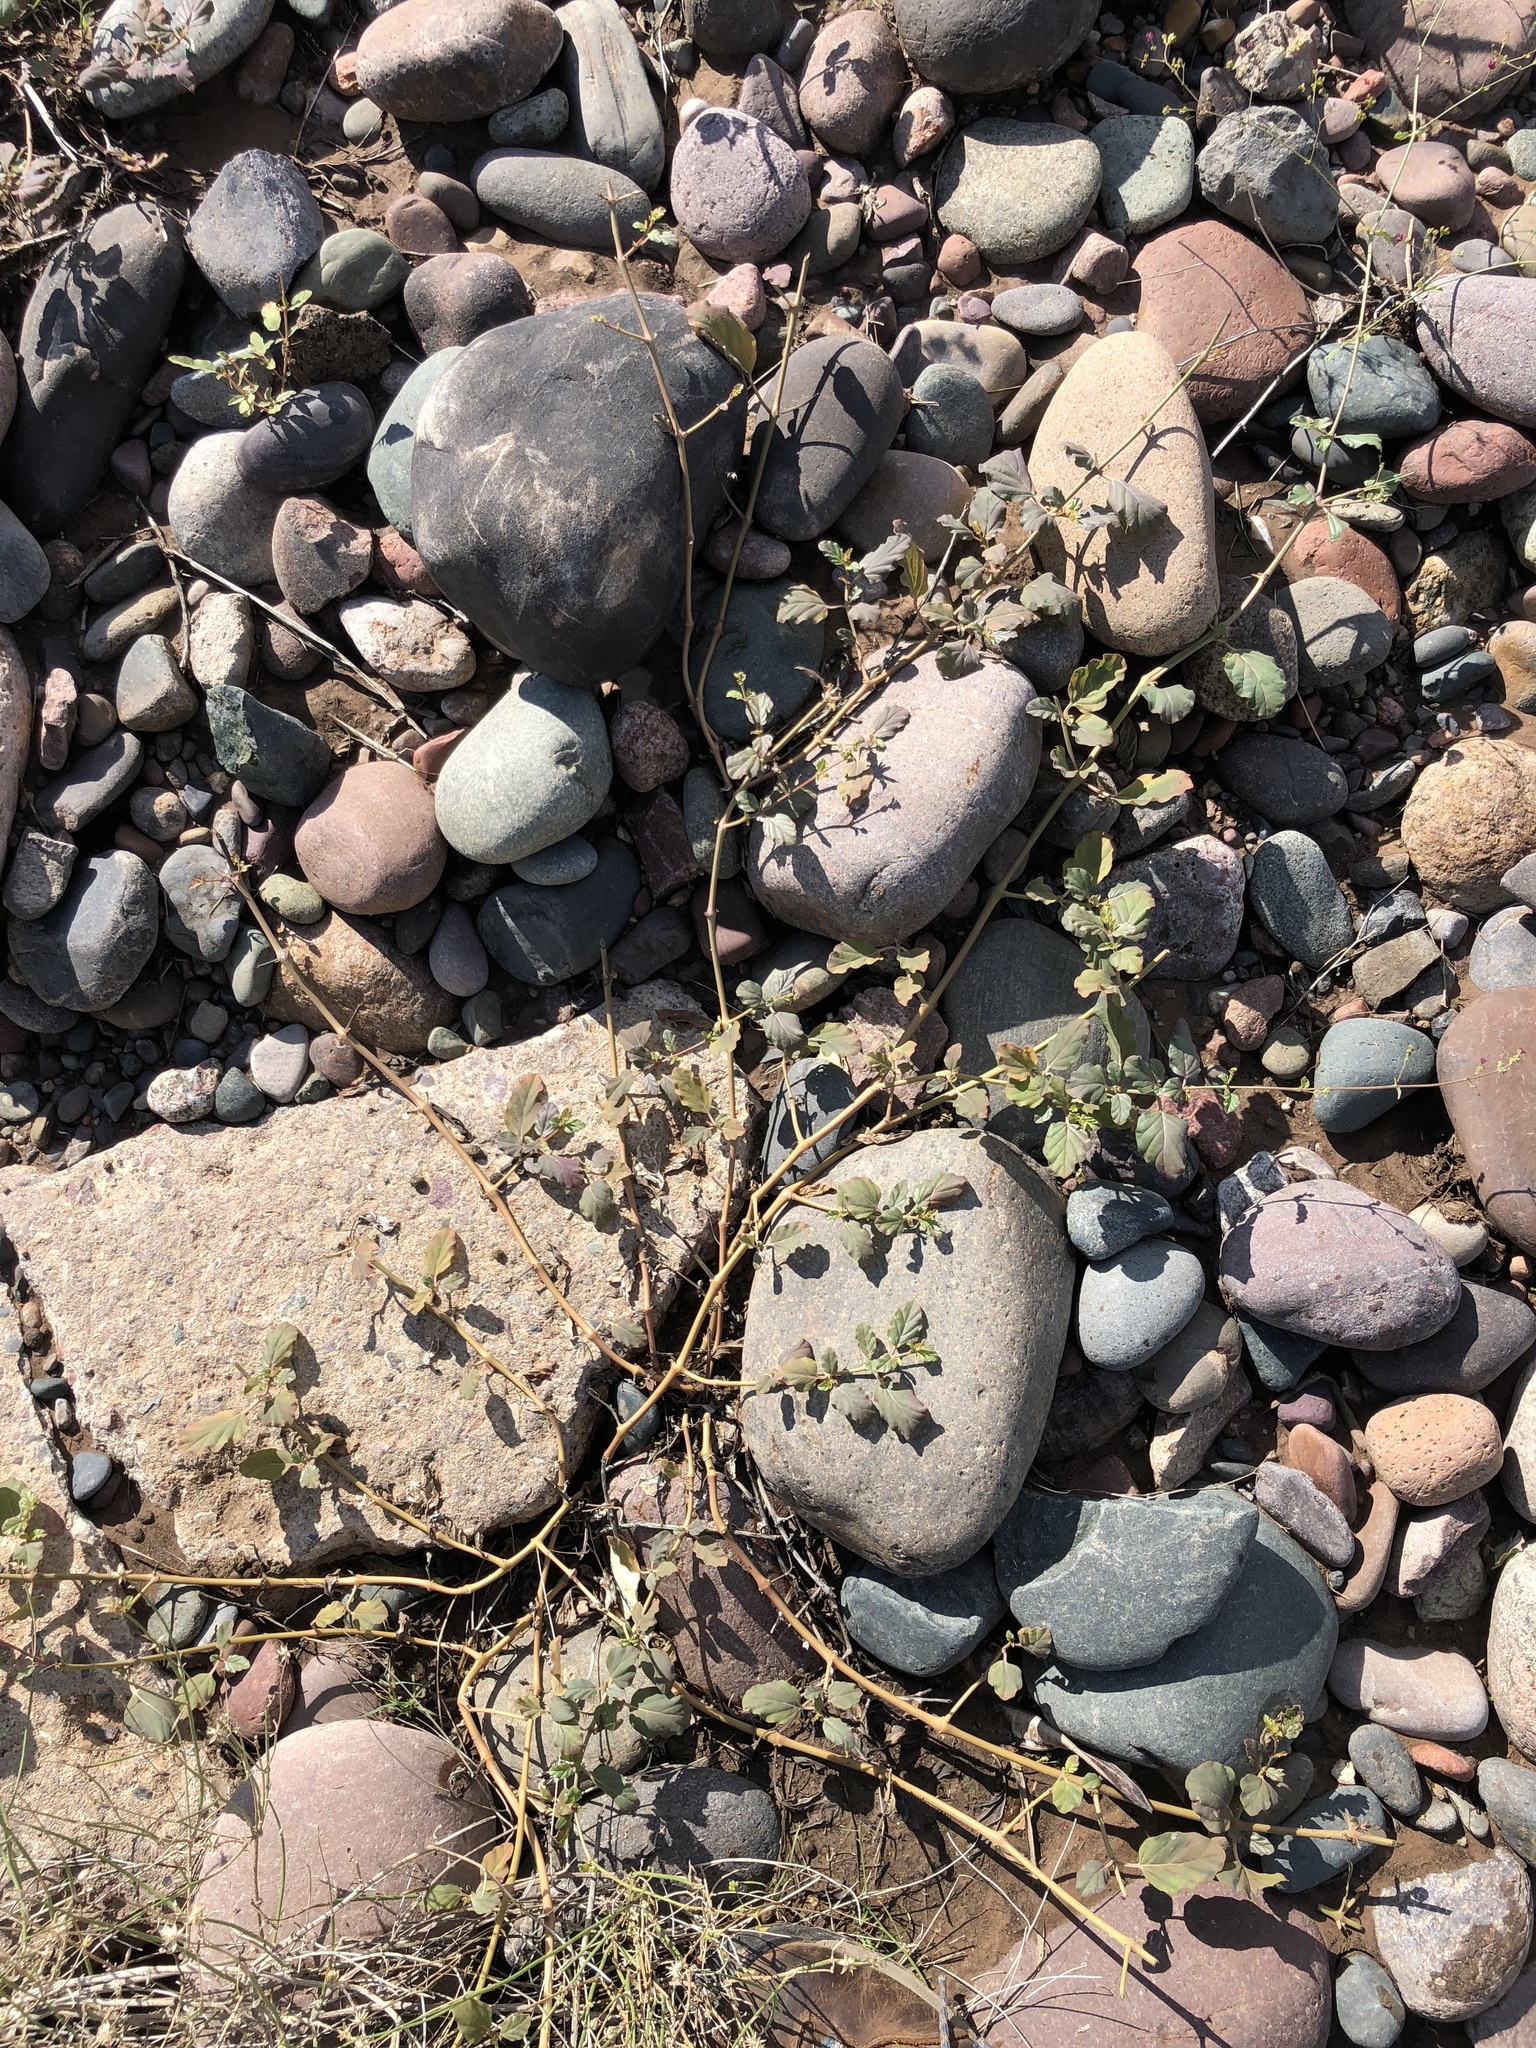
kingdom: Plantae
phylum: Tracheophyta
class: Magnoliopsida
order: Caryophyllales
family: Nyctaginaceae
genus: Boerhavia
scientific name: Boerhavia coccinea
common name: Scarlet spiderling
